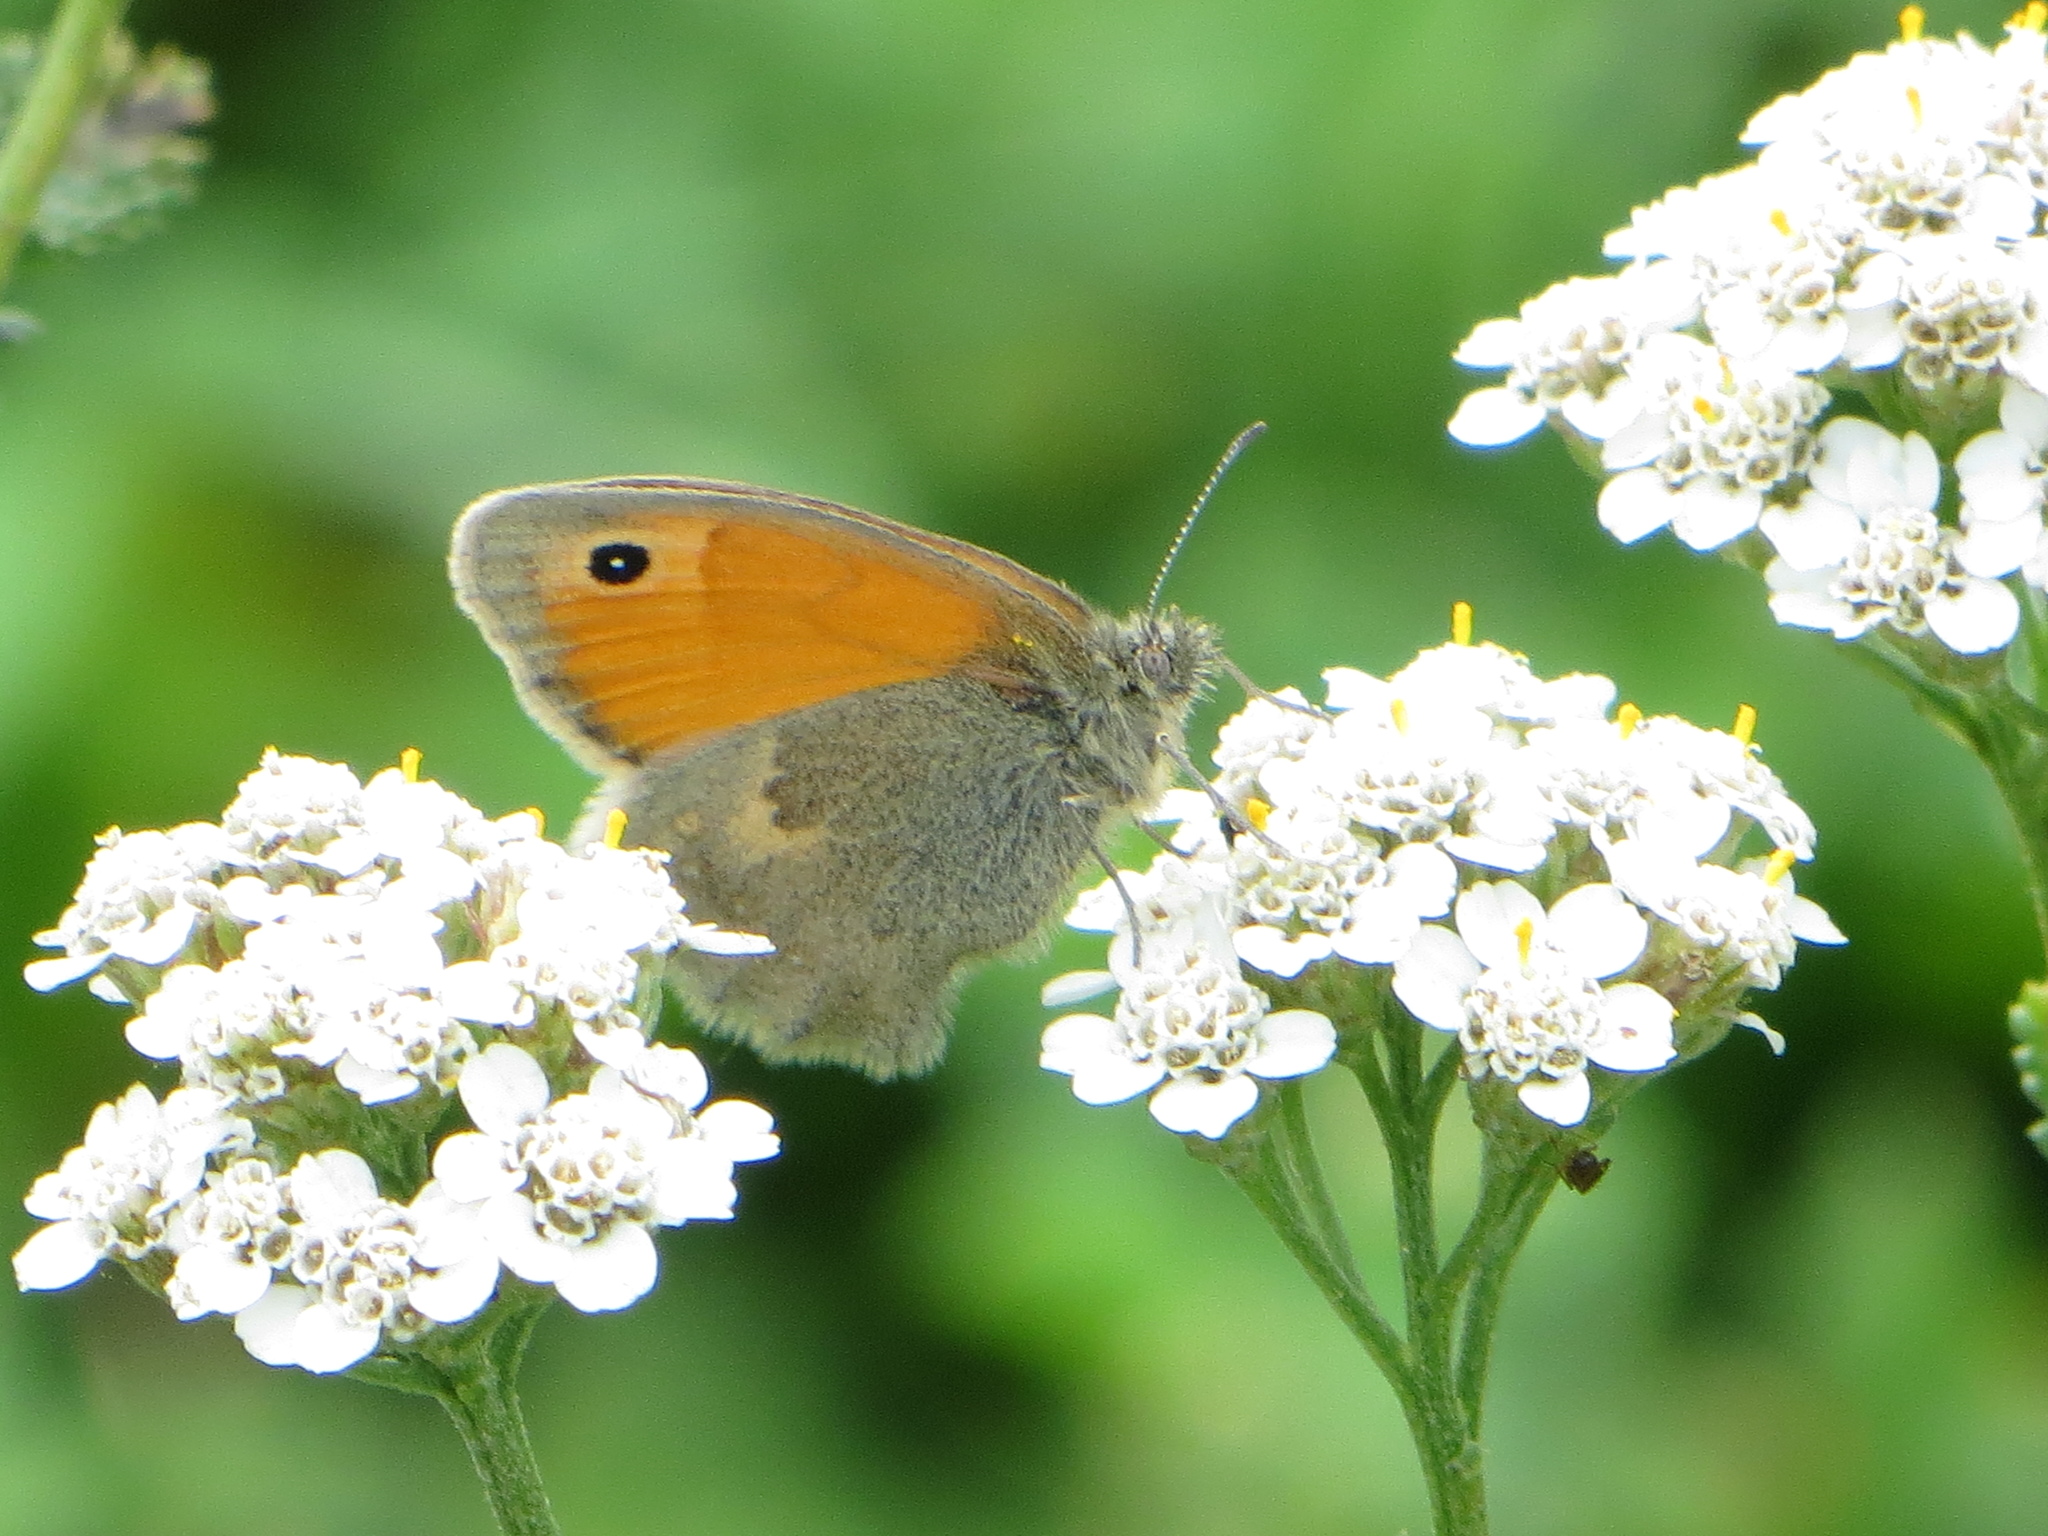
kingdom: Animalia
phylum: Arthropoda
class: Insecta
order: Lepidoptera
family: Nymphalidae
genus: Coenonympha
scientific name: Coenonympha pamphilus
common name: Small heath
